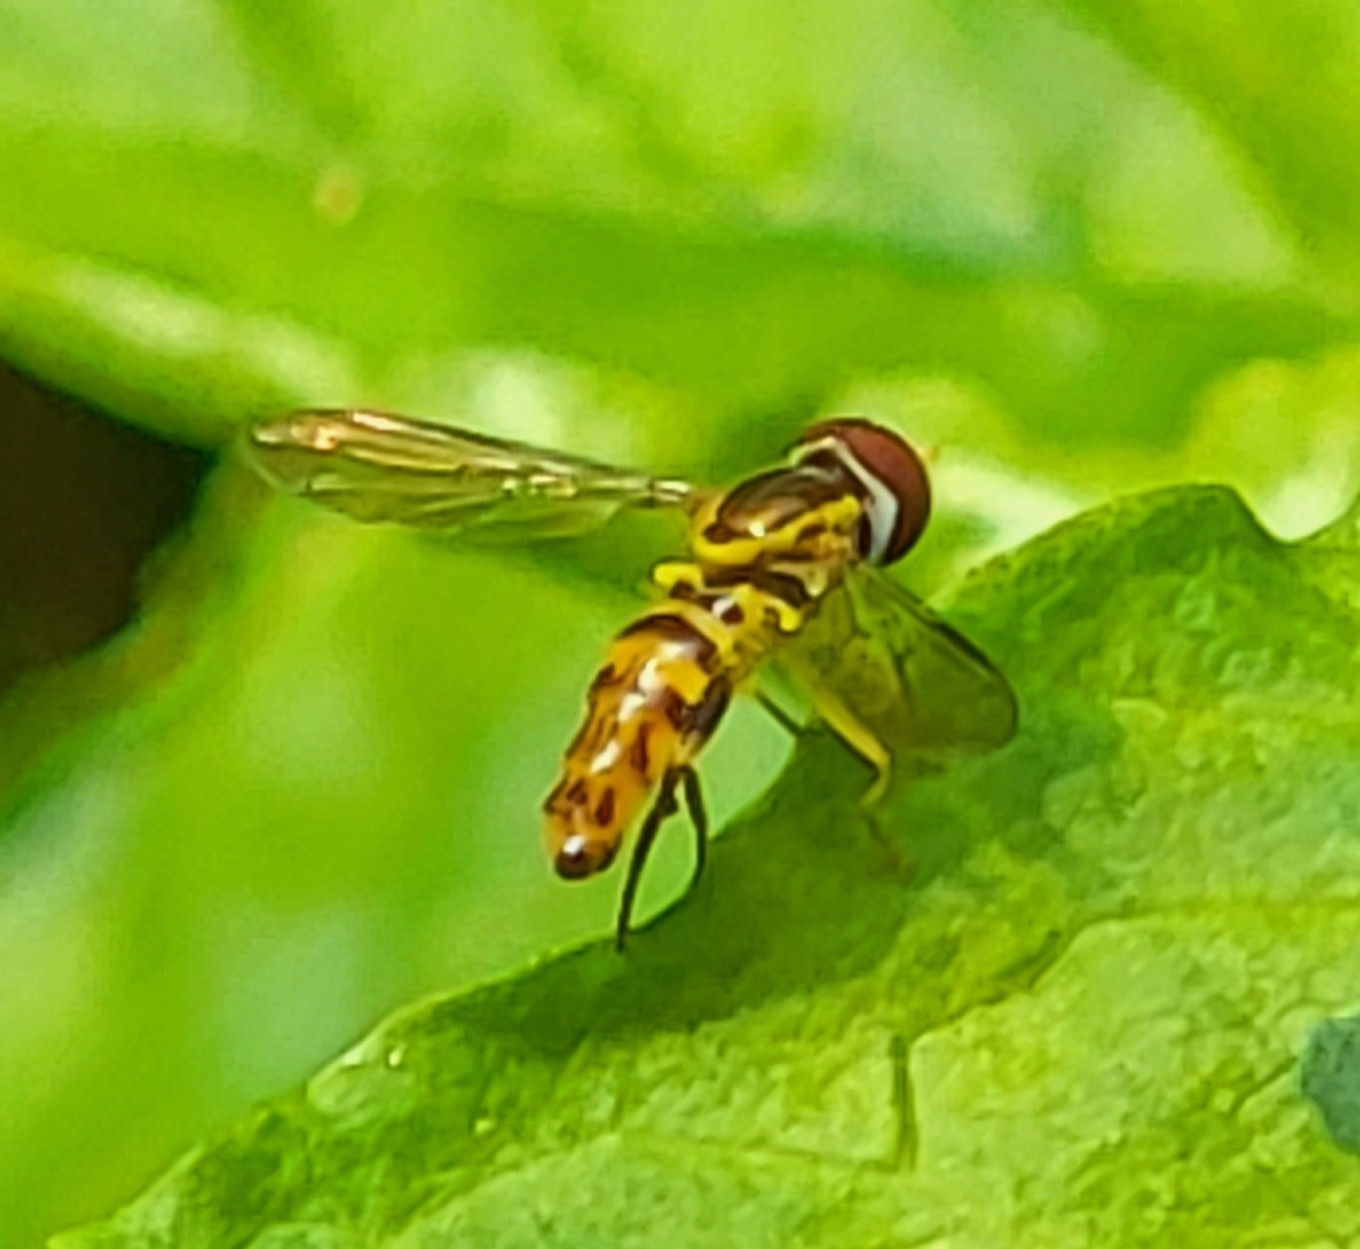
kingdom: Animalia
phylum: Arthropoda
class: Insecta
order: Diptera
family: Syrphidae
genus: Toxomerus
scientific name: Toxomerus geminatus
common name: Eastern calligrapher
